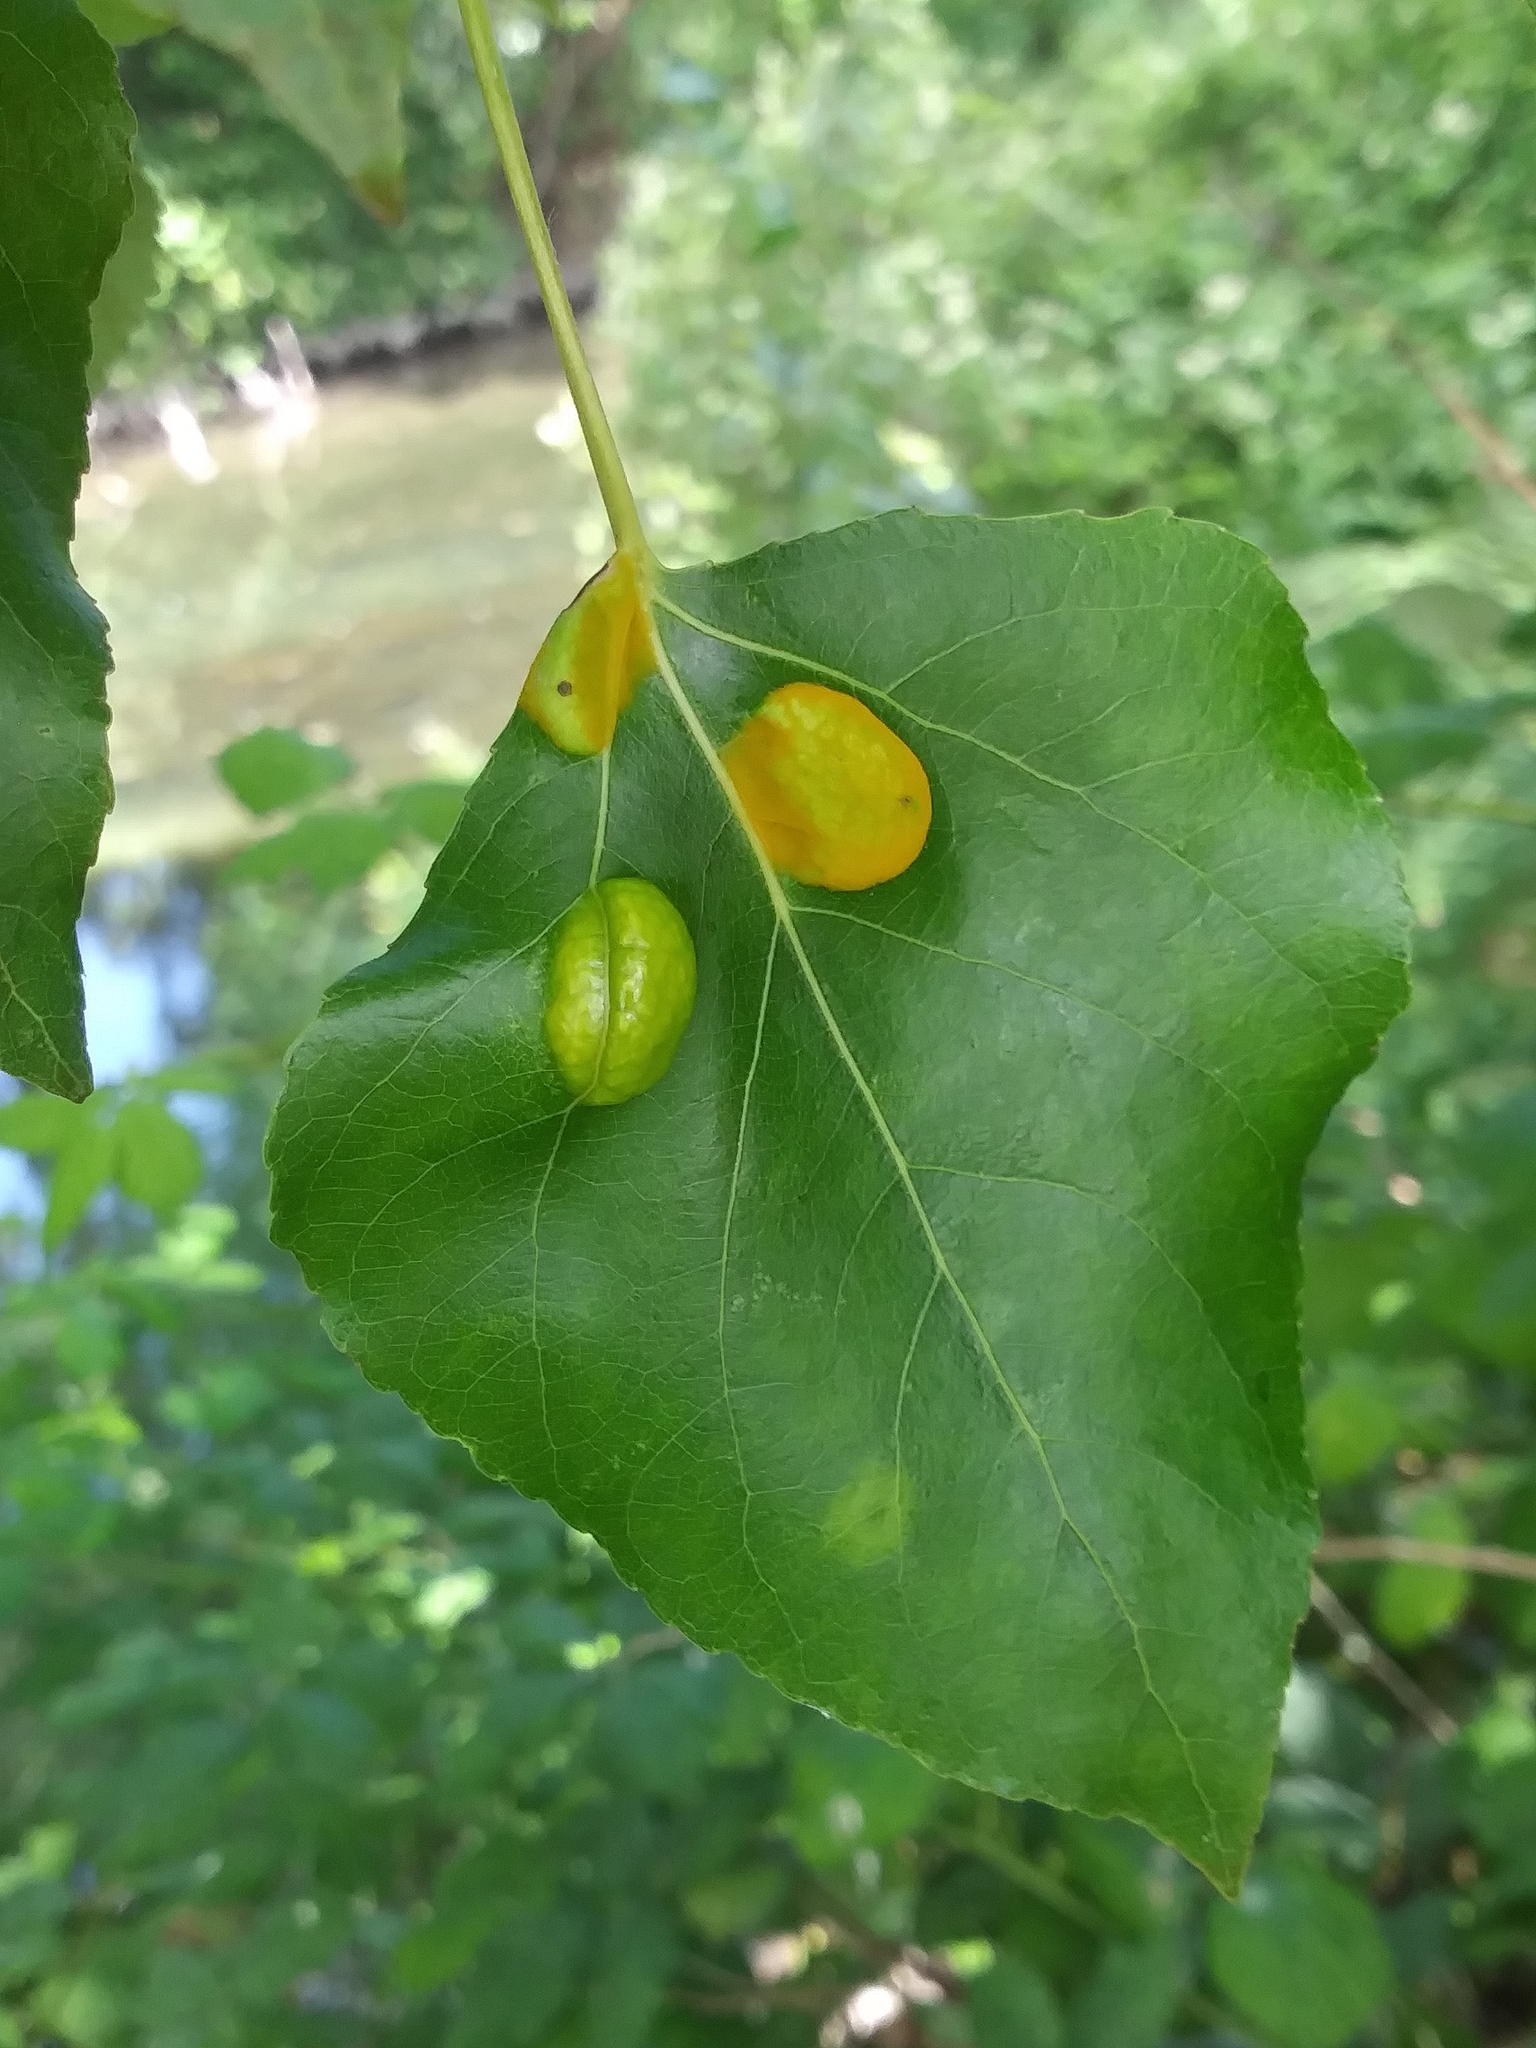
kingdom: Fungi
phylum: Ascomycota
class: Taphrinomycetes
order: Taphrinales
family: Taphrinaceae
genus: Taphrina
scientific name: Taphrina populi-salicis
